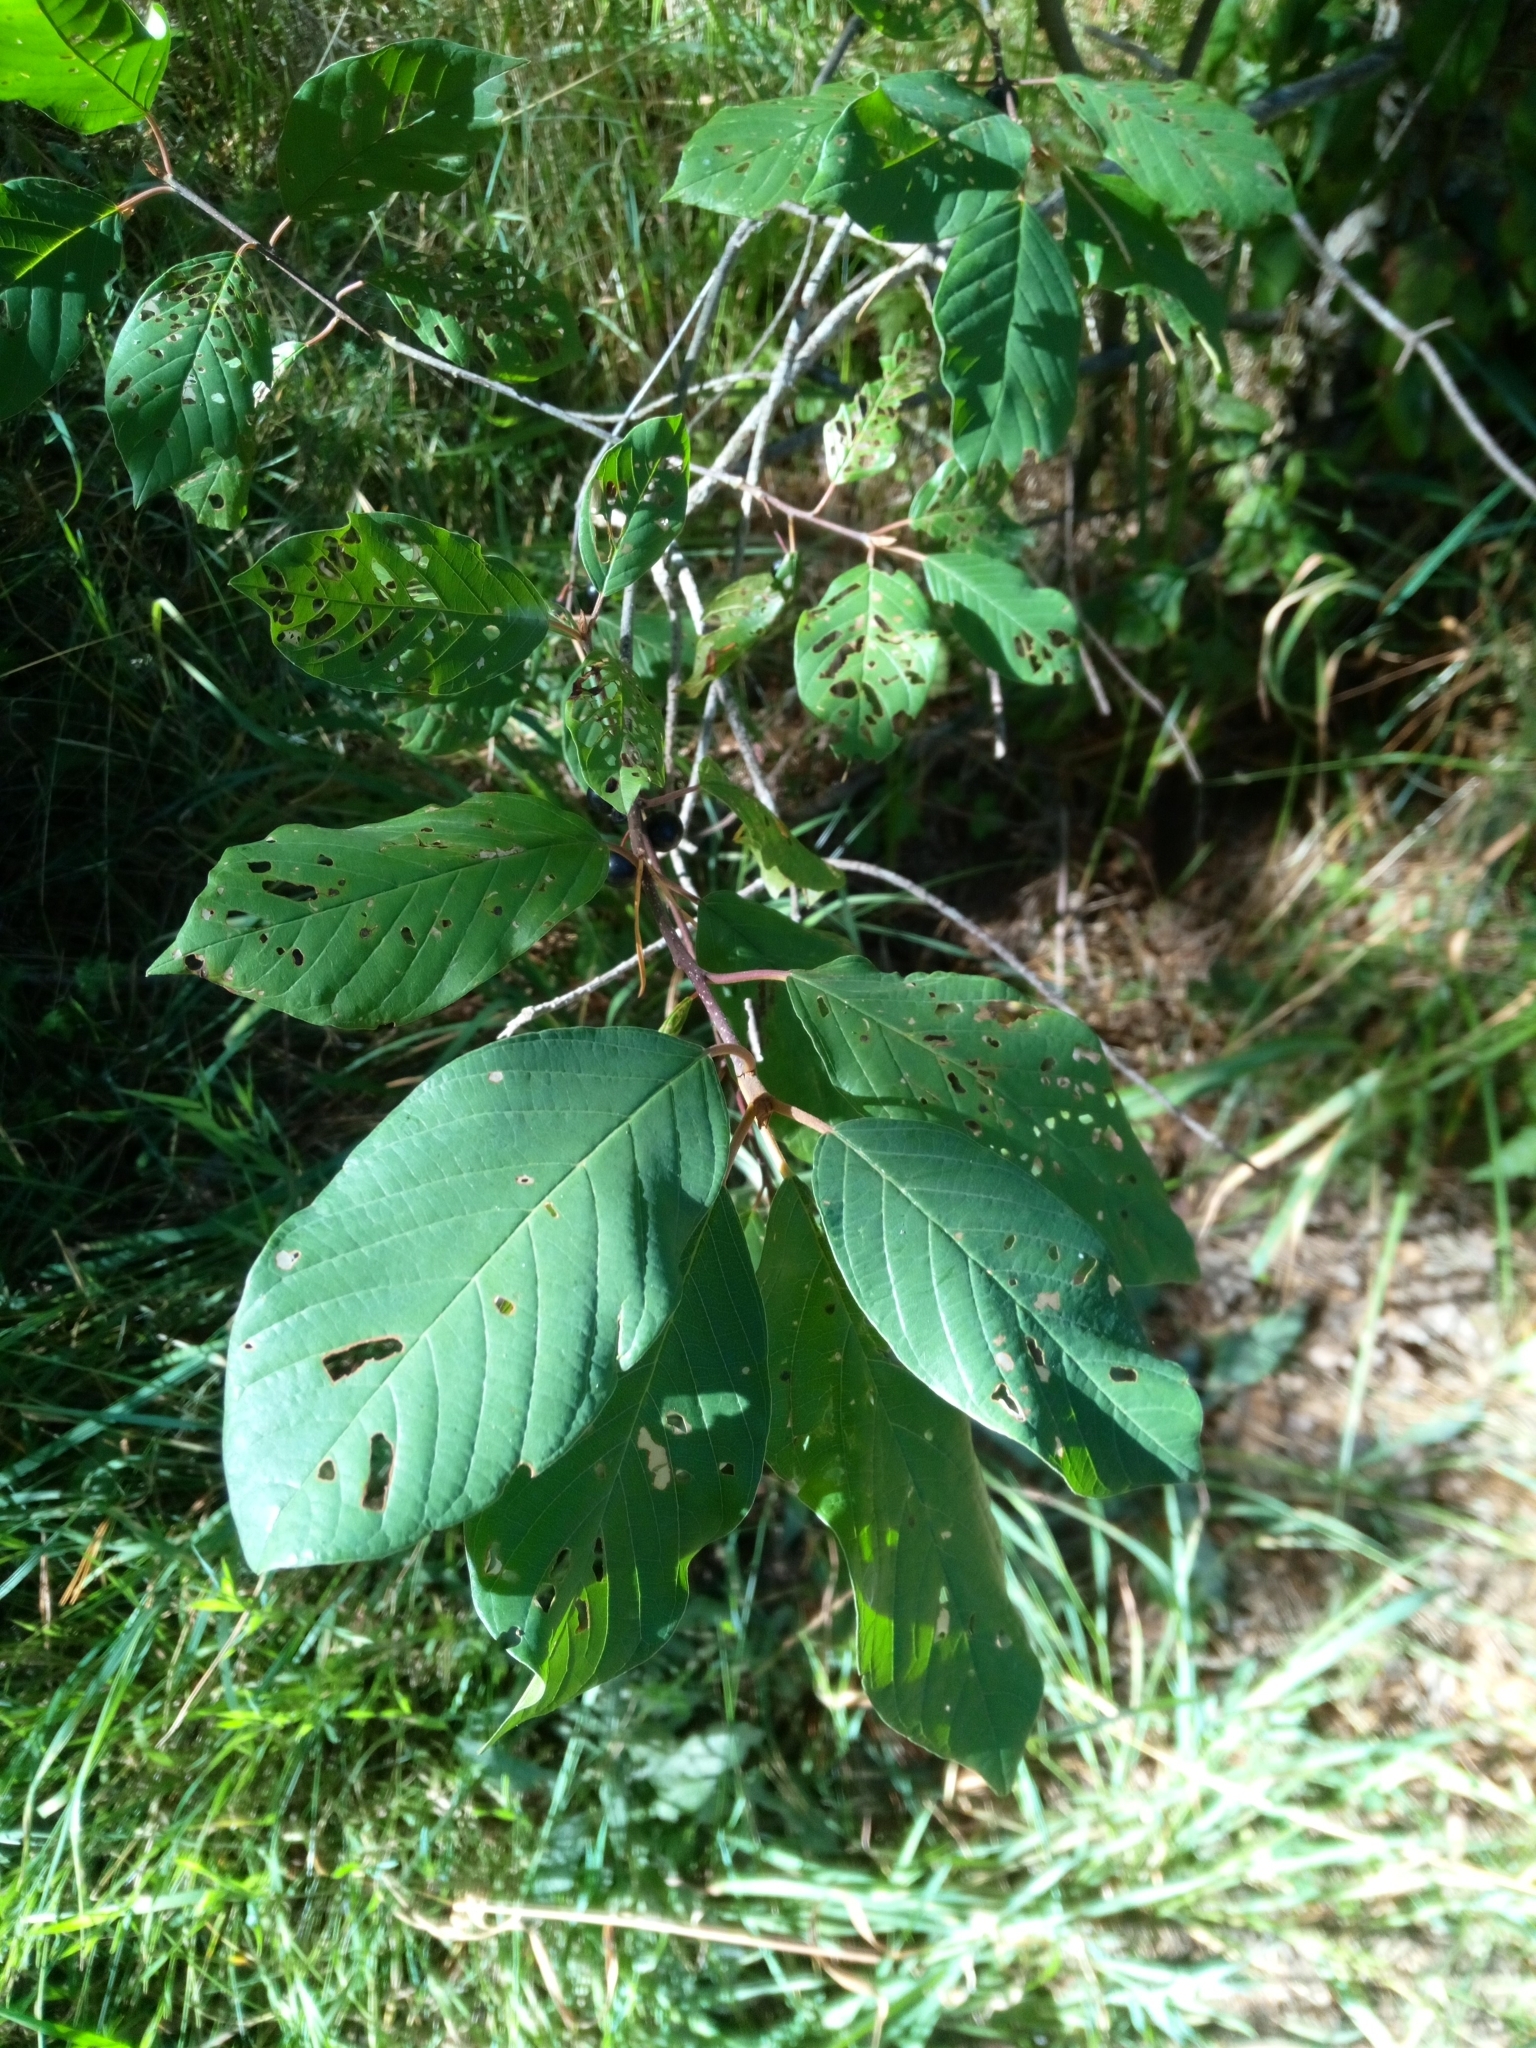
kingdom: Plantae
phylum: Tracheophyta
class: Magnoliopsida
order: Rosales
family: Rhamnaceae
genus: Frangula
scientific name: Frangula alnus
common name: Alder buckthorn
